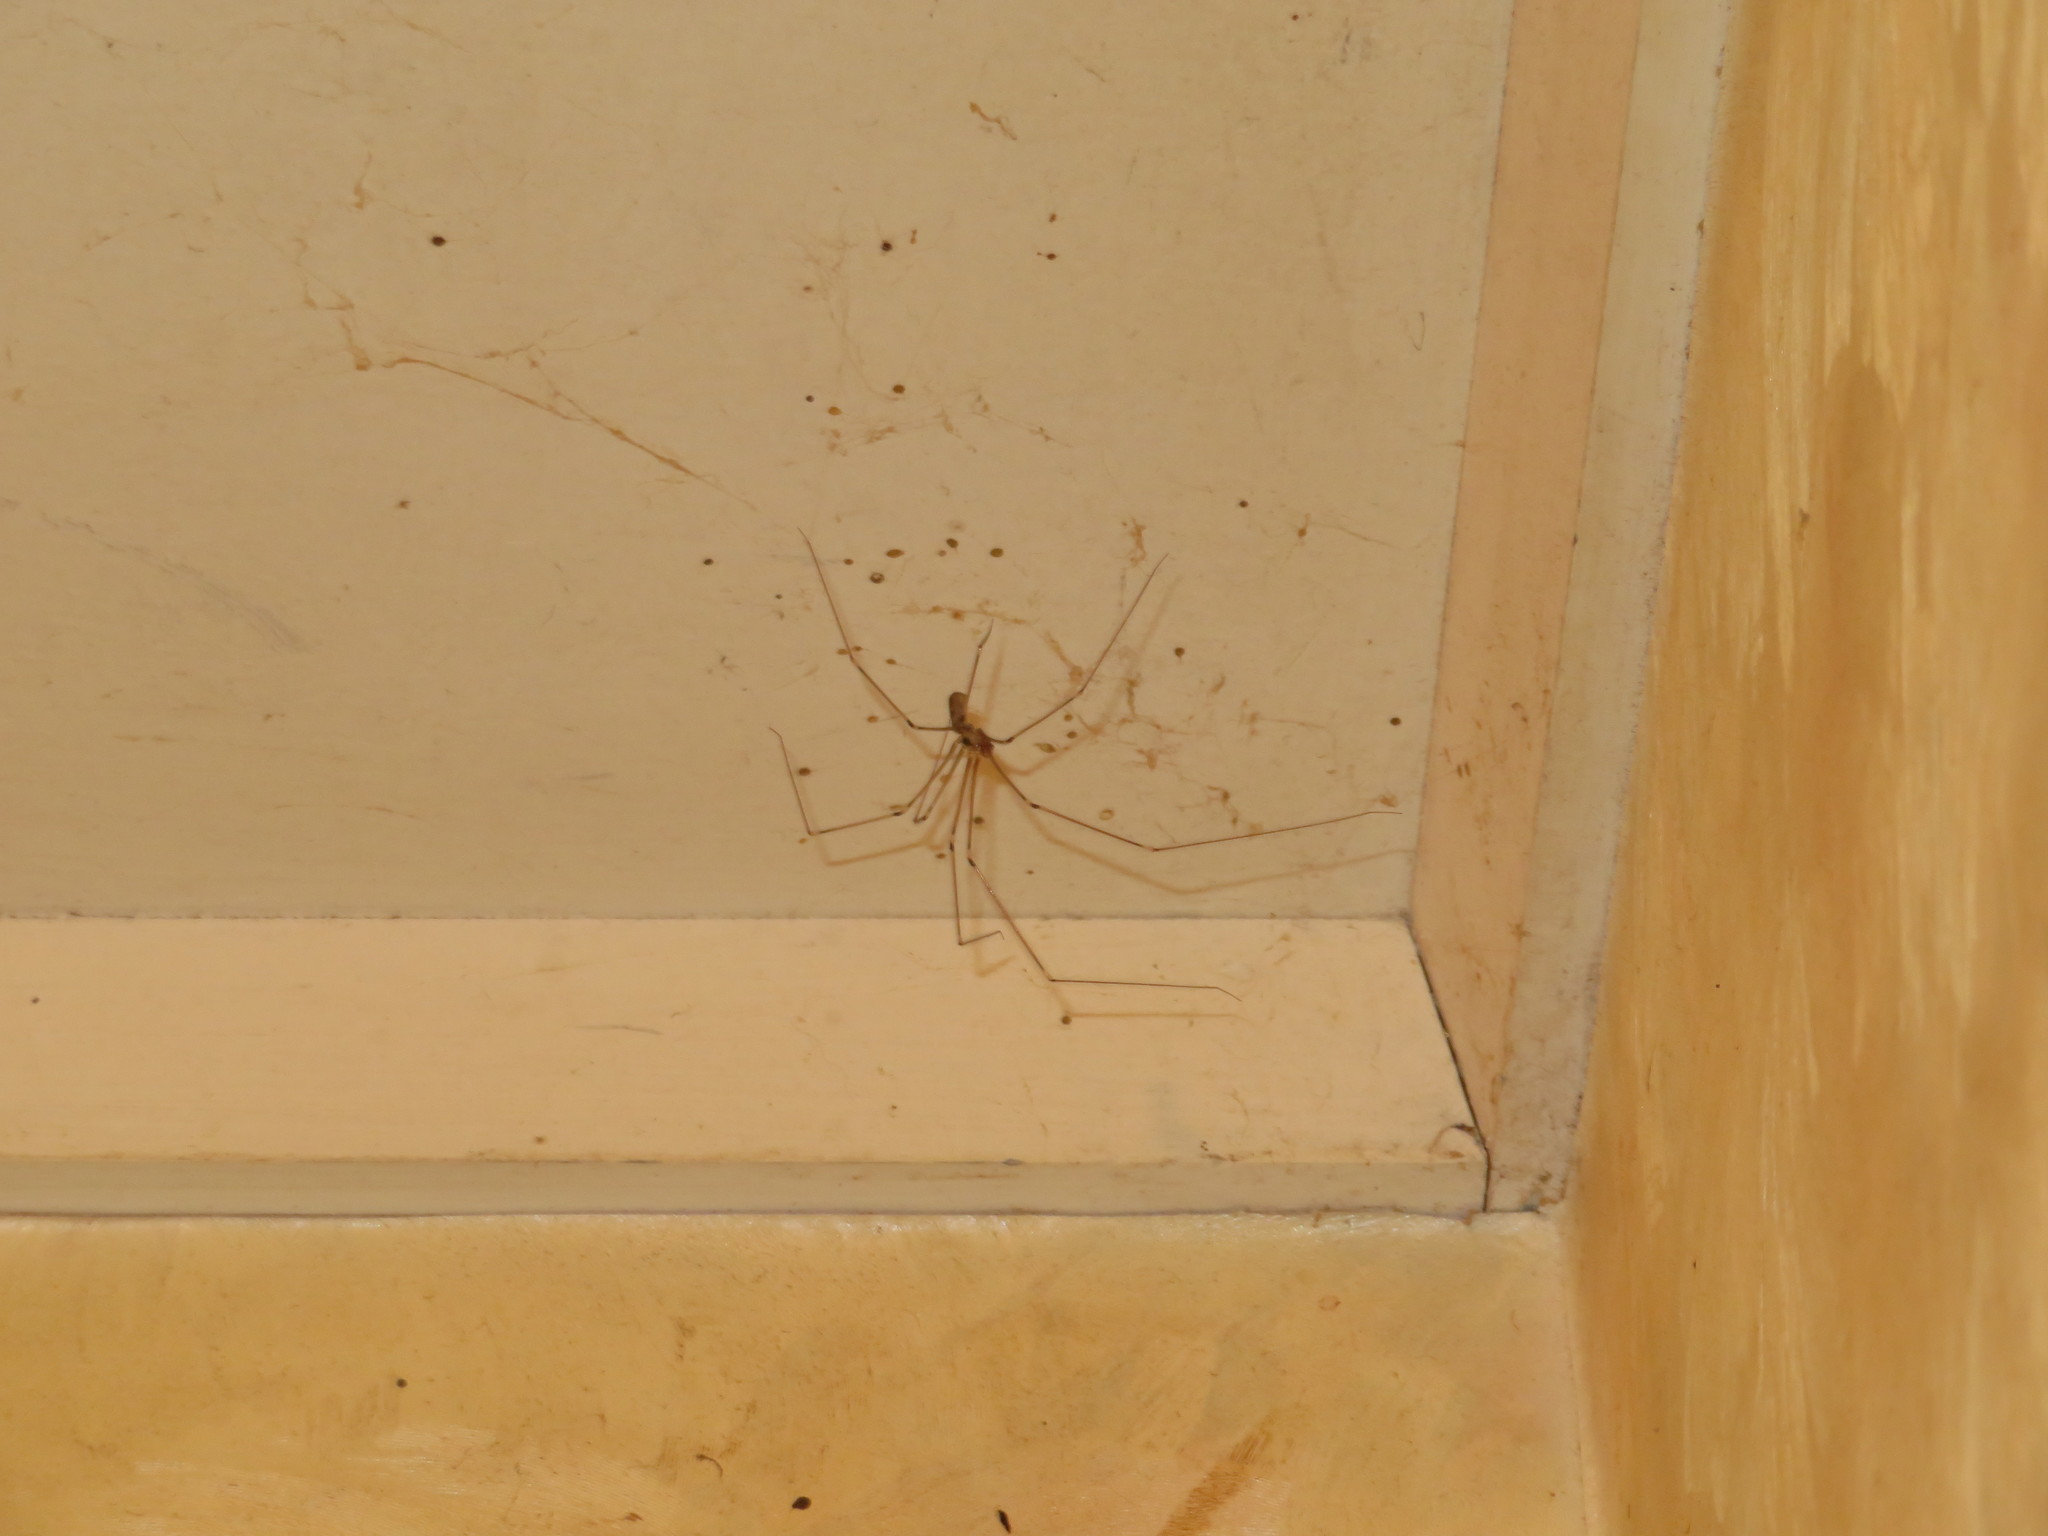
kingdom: Animalia
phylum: Arthropoda
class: Arachnida
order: Araneae
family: Pholcidae
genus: Pholcus
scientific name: Pholcus phalangioides
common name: Longbodied cellar spider
